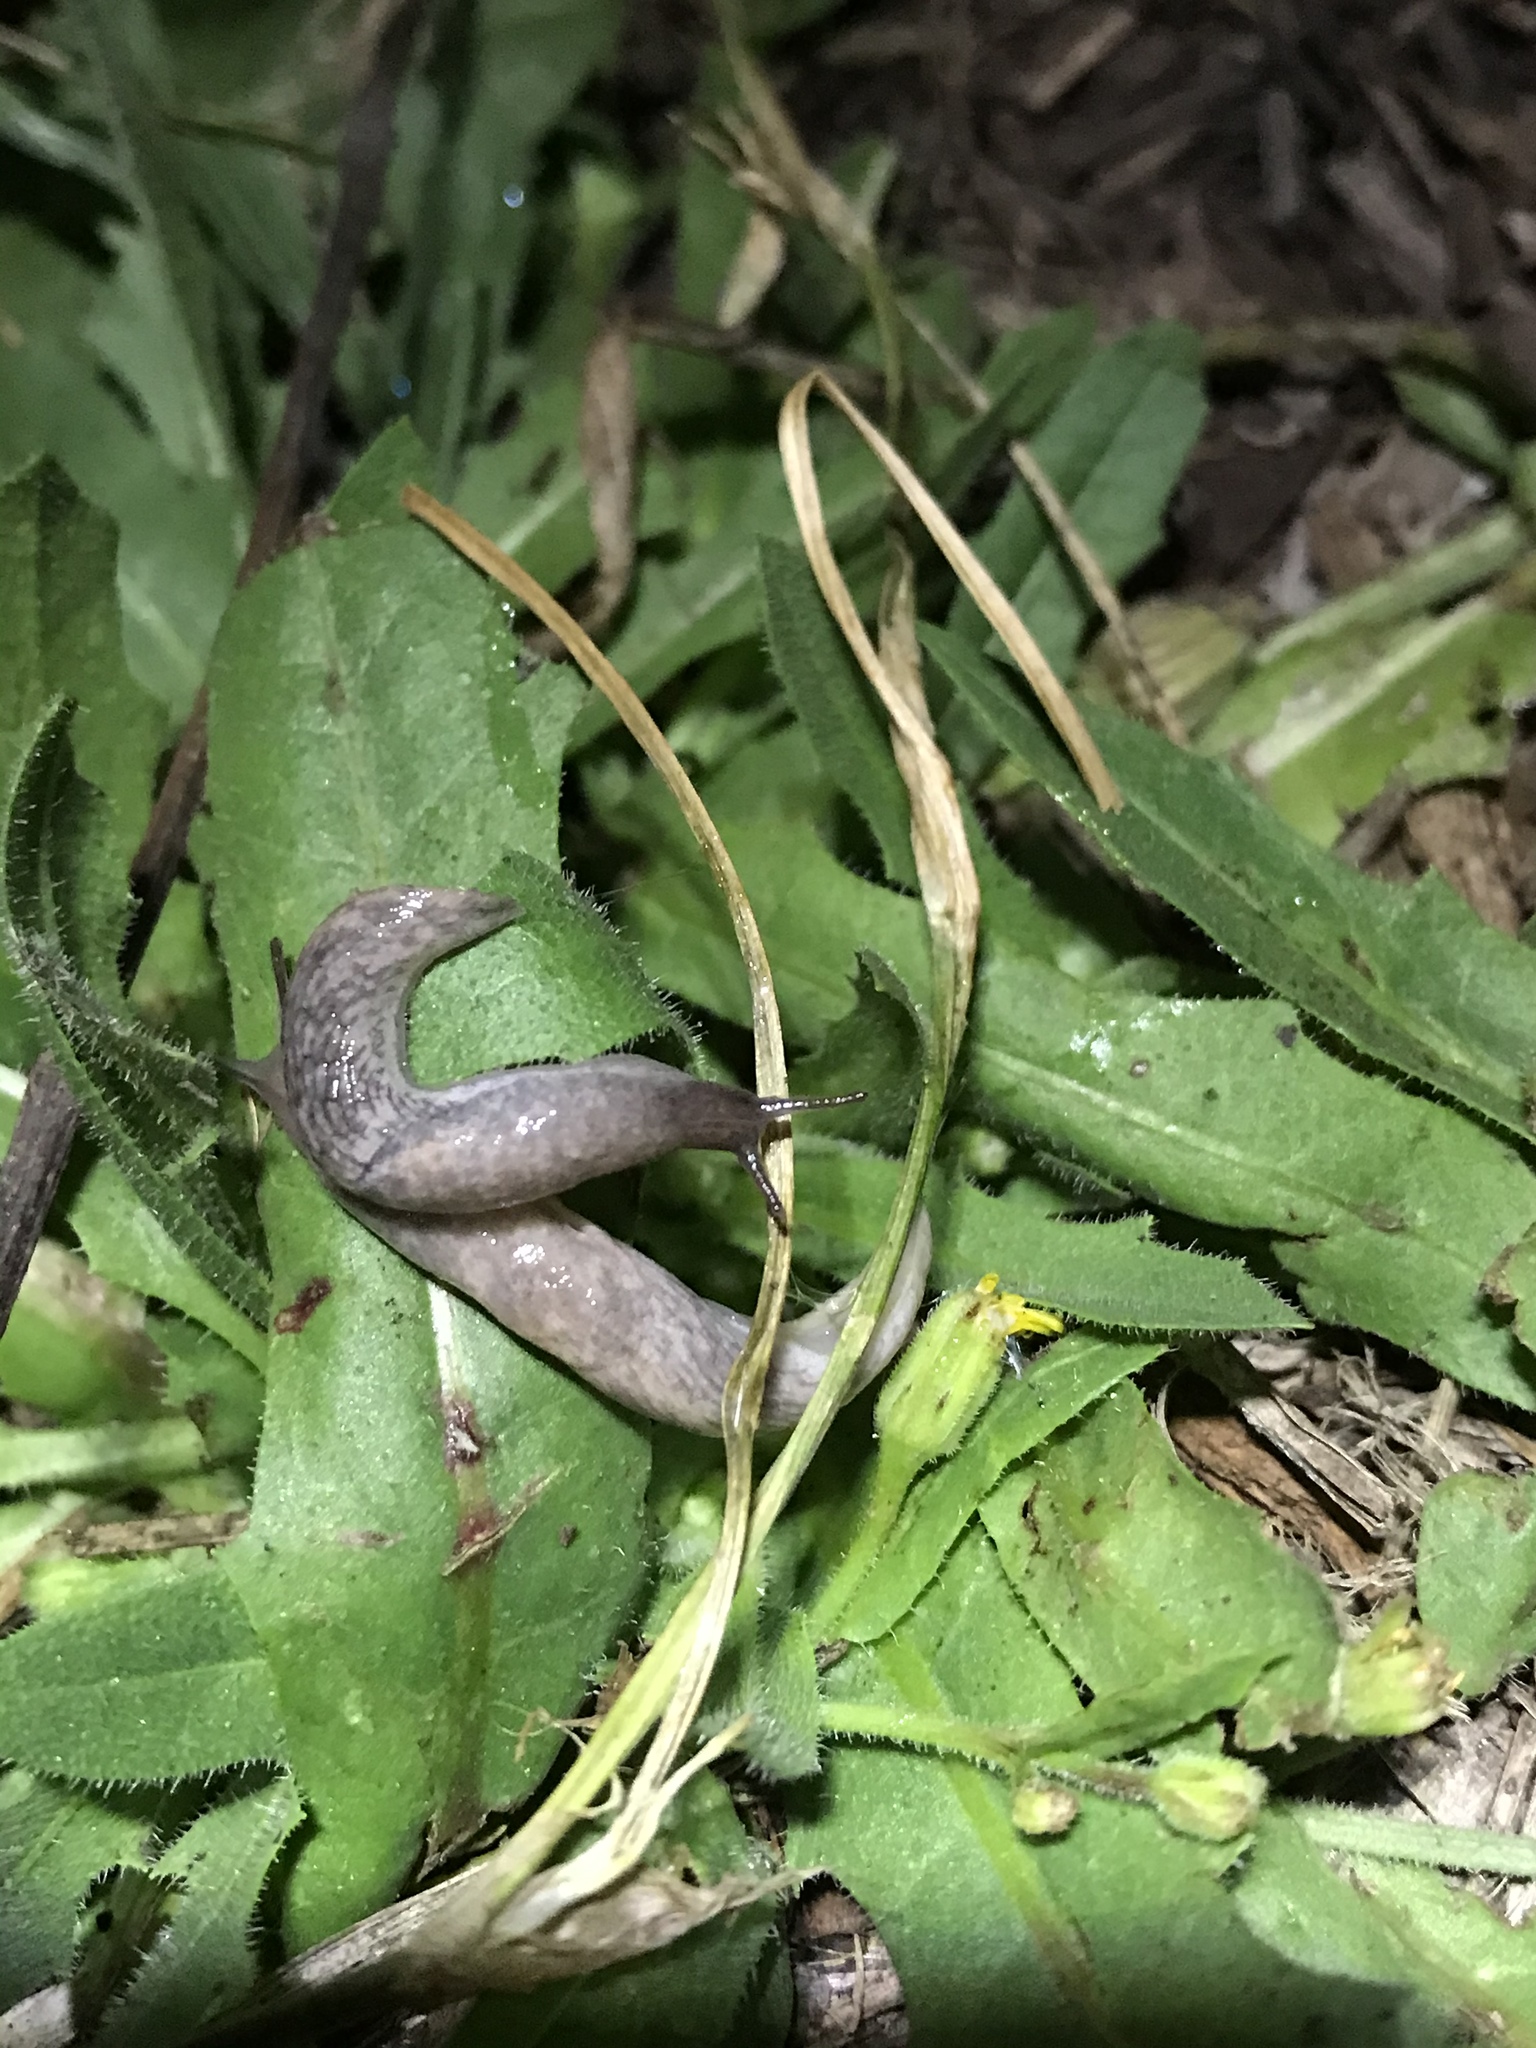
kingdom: Animalia
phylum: Mollusca
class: Gastropoda
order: Stylommatophora
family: Agriolimacidae
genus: Deroceras
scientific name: Deroceras reticulatum
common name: Gray field slug
